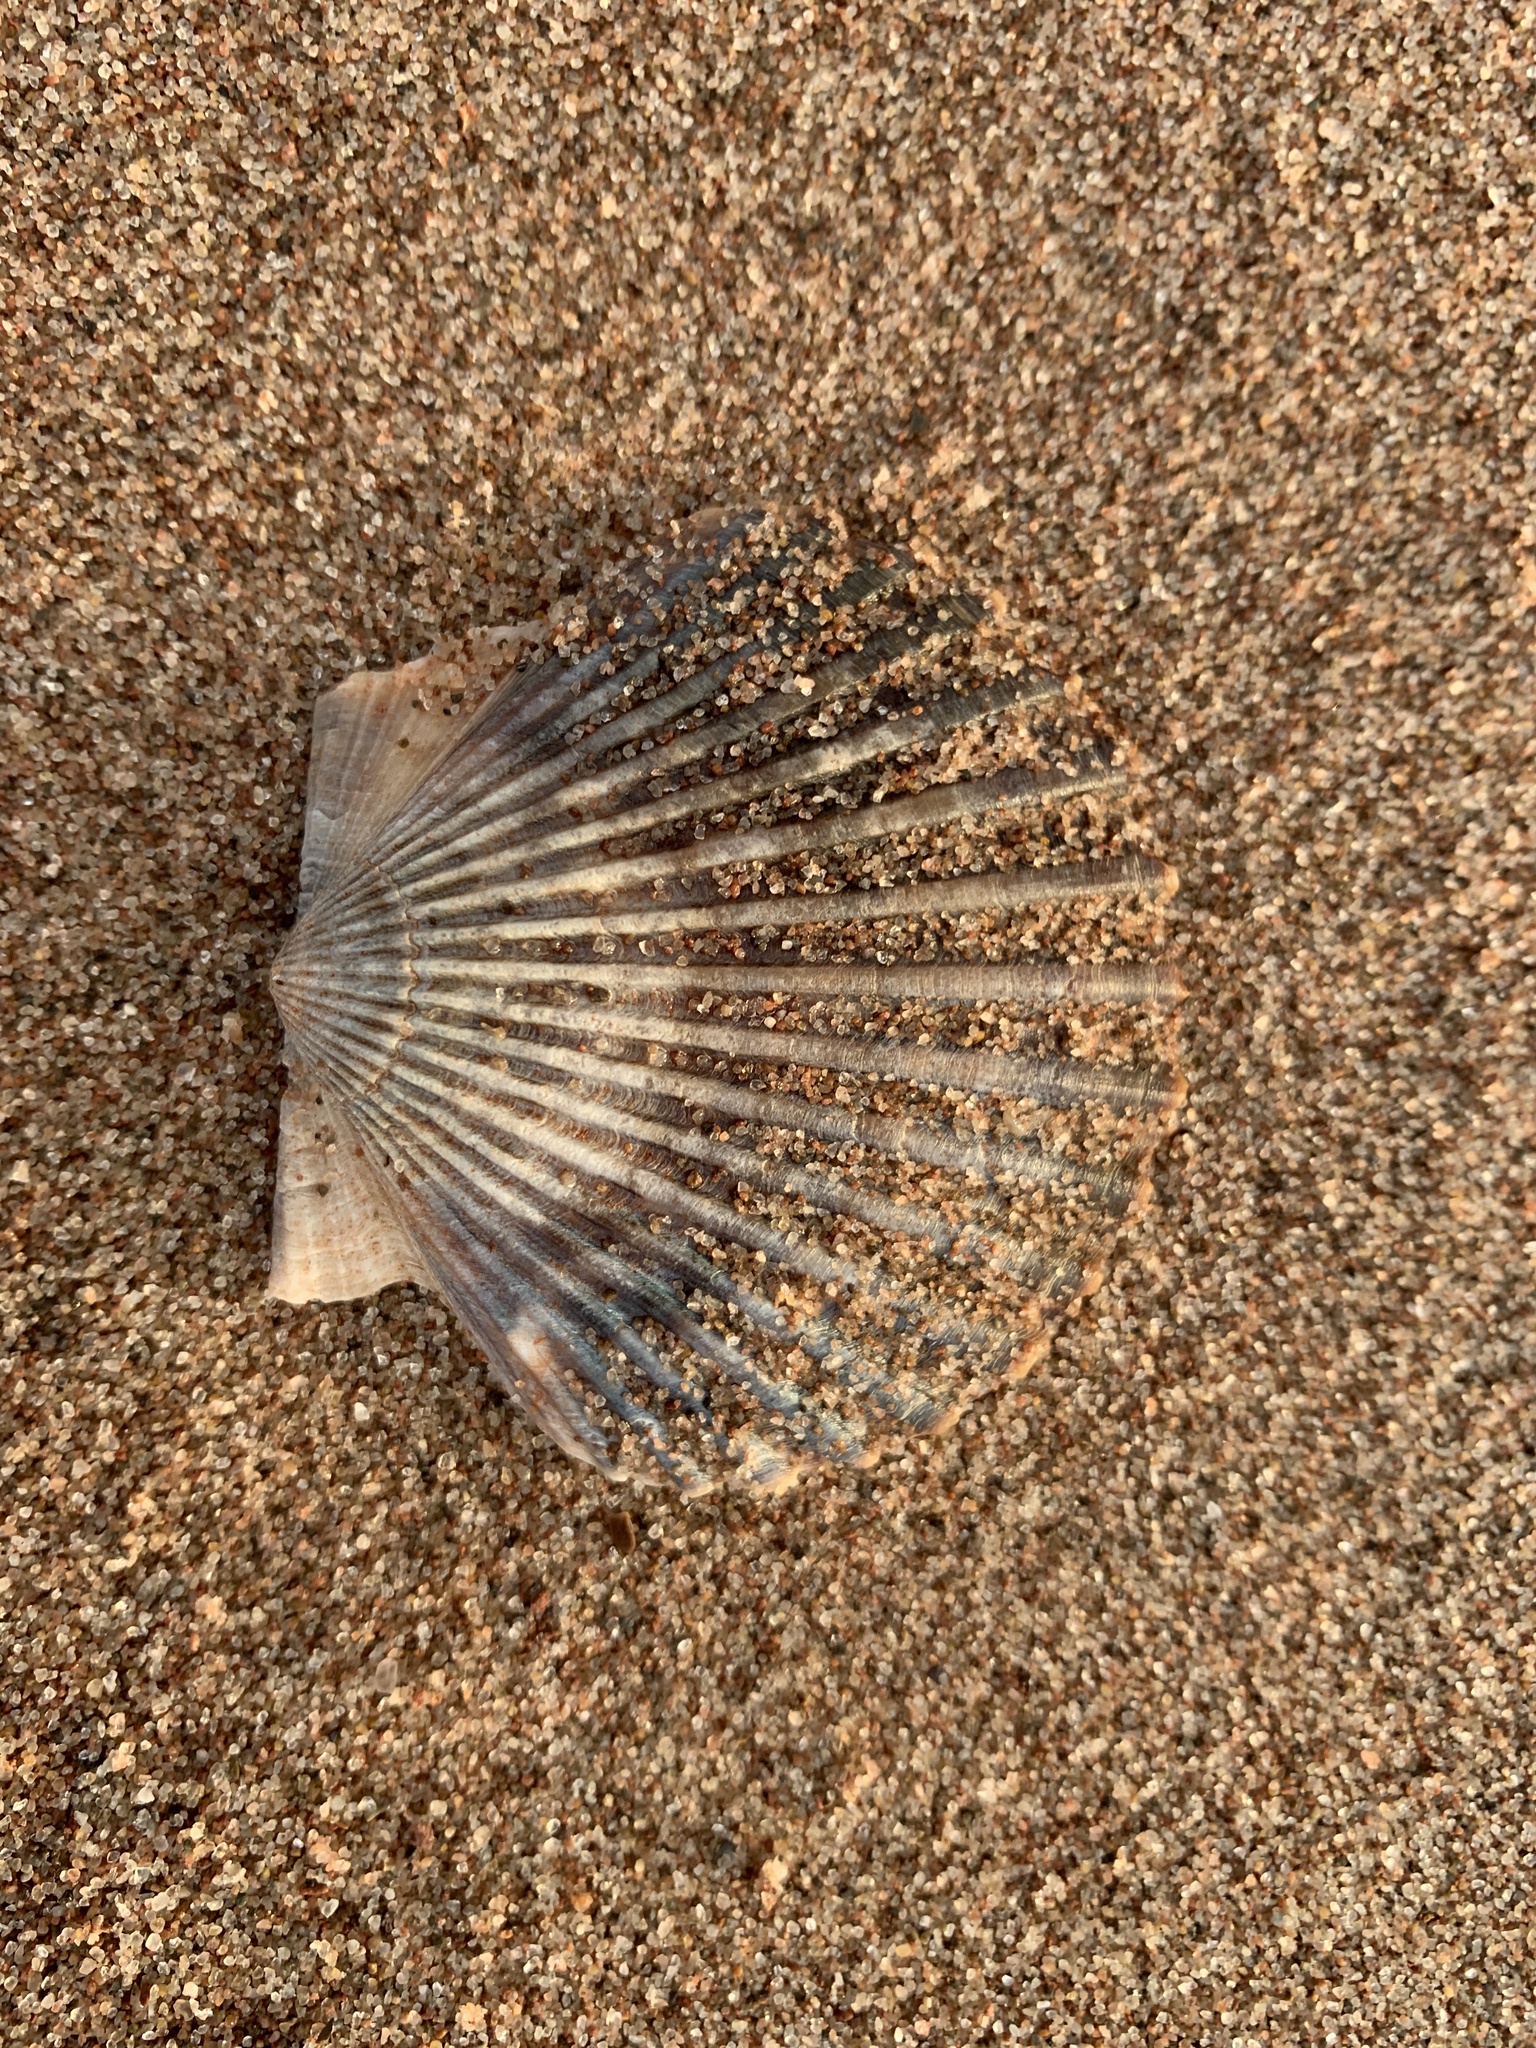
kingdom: Animalia
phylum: Mollusca
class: Bivalvia
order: Pectinida
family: Pectinidae
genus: Argopecten
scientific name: Argopecten irradians
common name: Atlantic bay scallop
